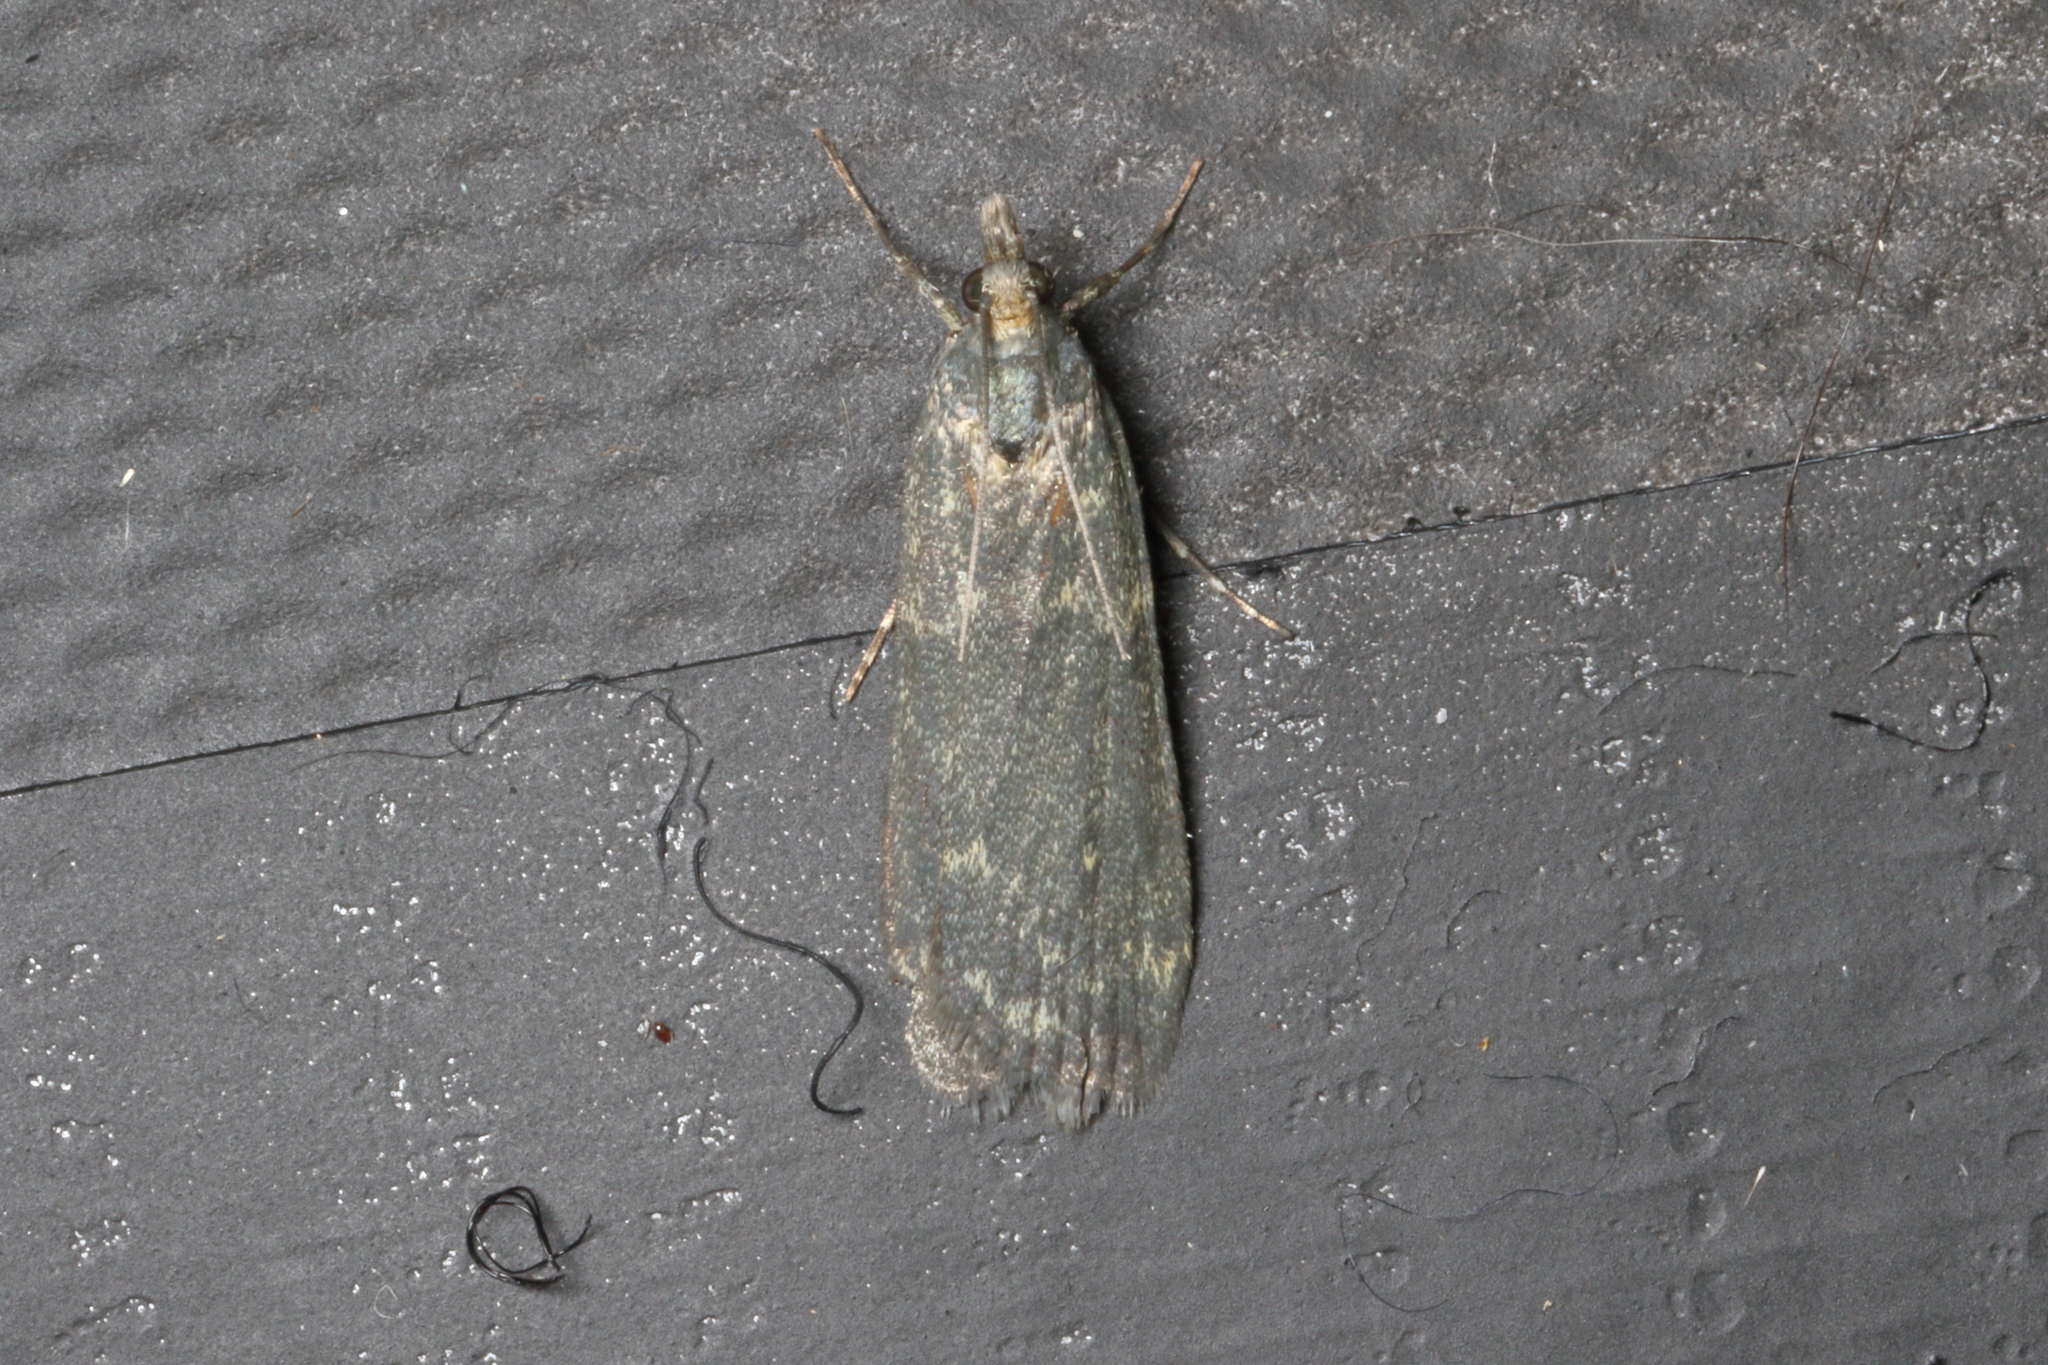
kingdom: Animalia
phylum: Arthropoda
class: Insecta
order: Lepidoptera
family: Crambidae
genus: Eudonia
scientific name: Eudonia cataxesta
